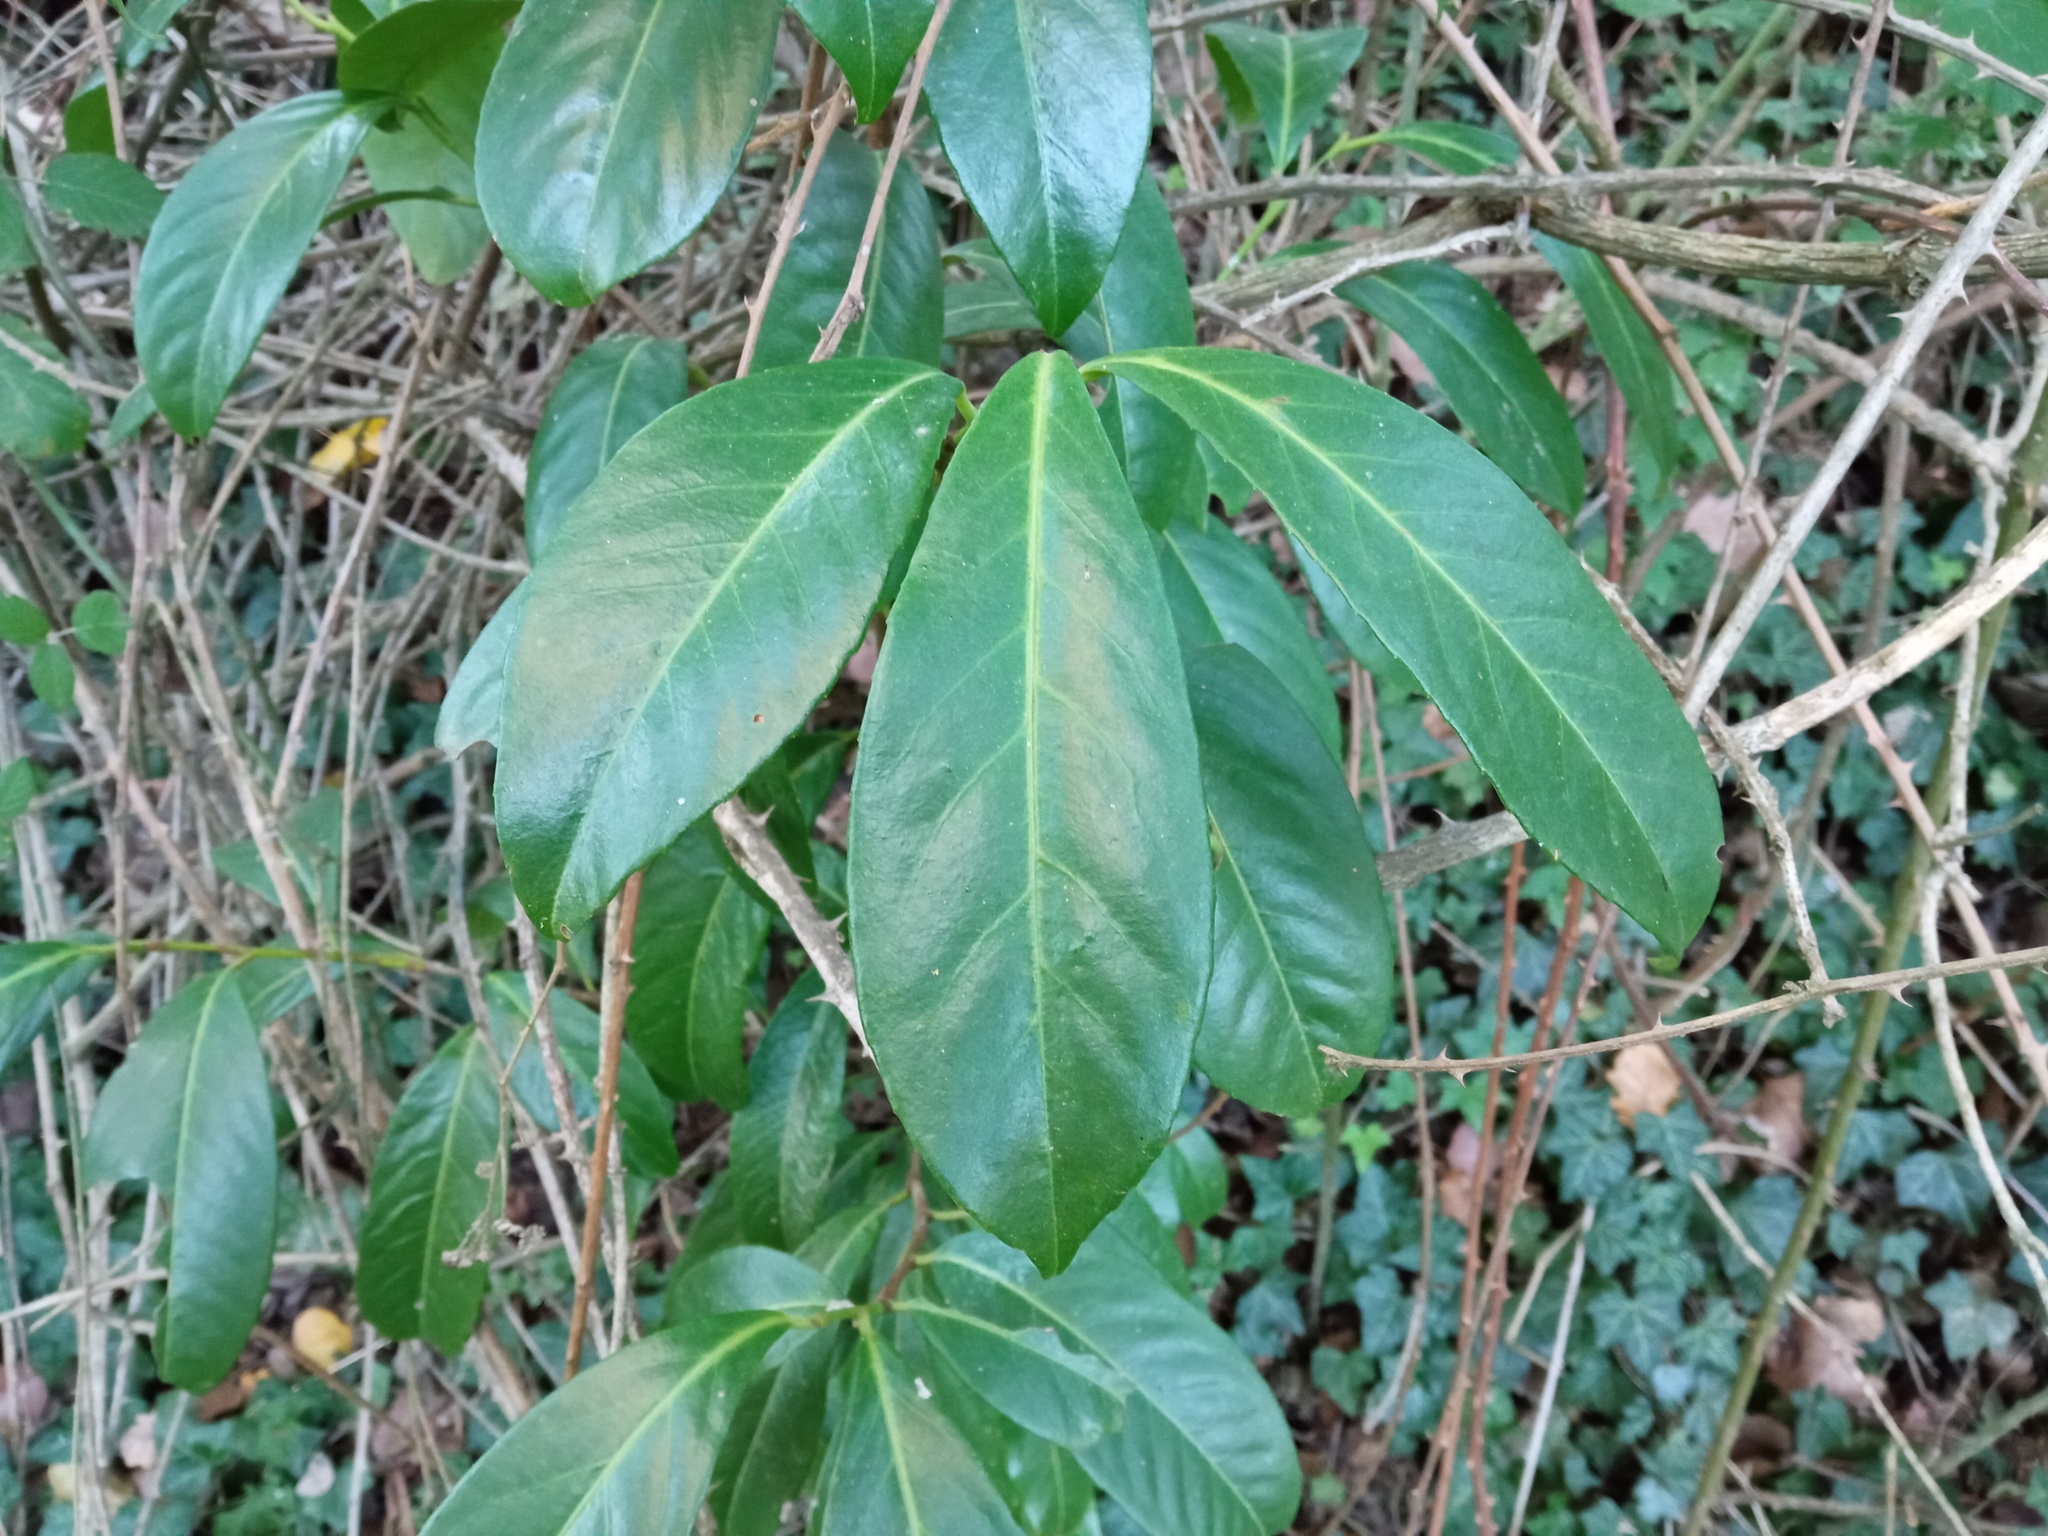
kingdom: Plantae
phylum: Tracheophyta
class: Magnoliopsida
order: Rosales
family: Rosaceae
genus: Prunus
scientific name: Prunus laurocerasus
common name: Cherry laurel
